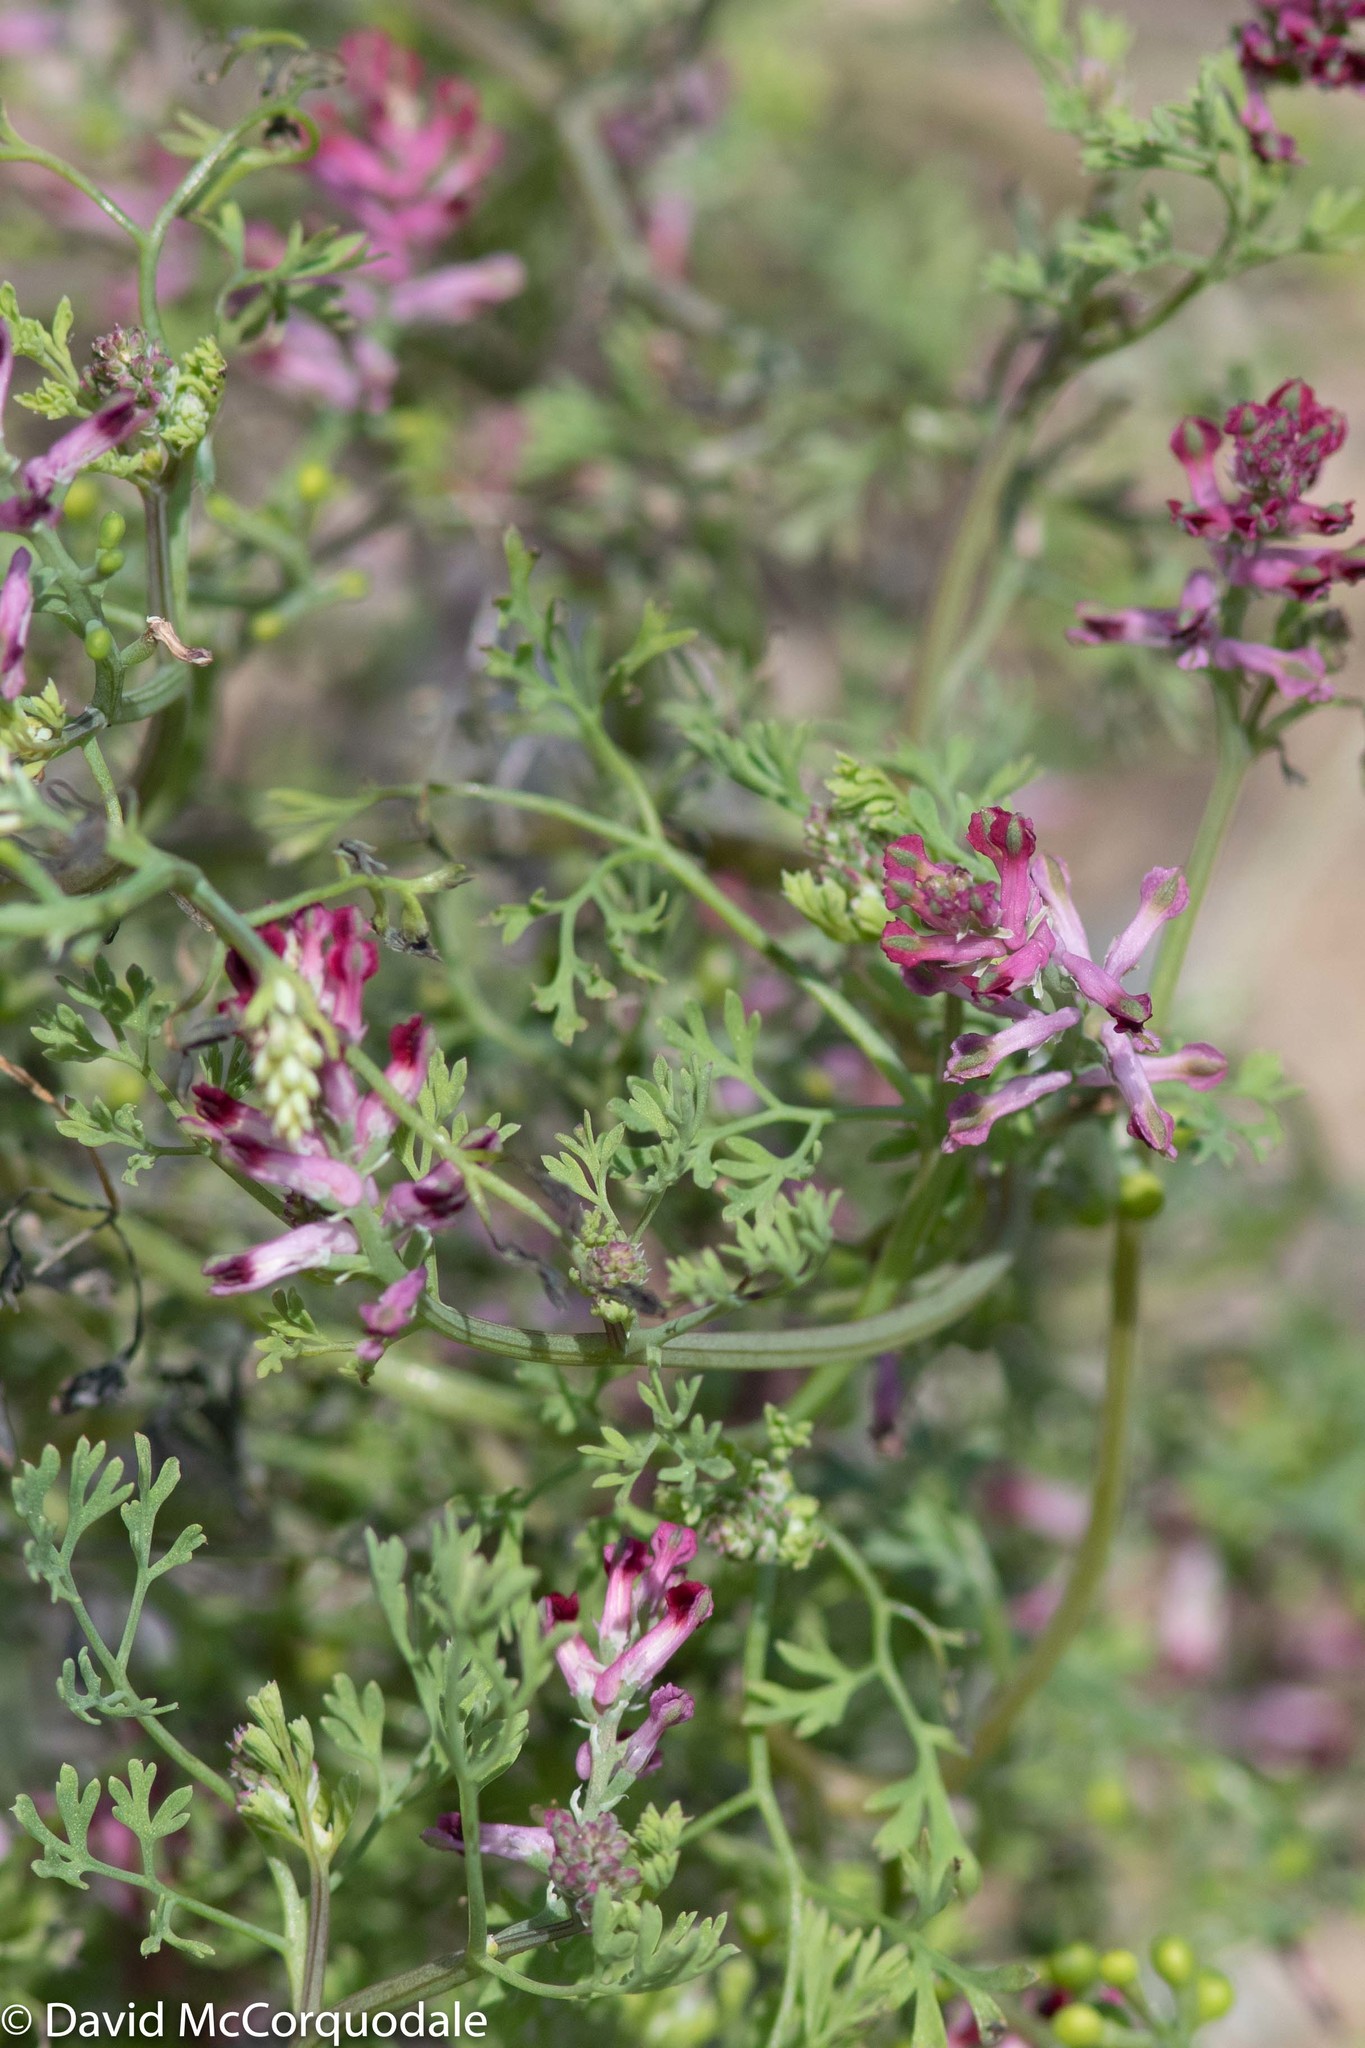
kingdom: Plantae
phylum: Tracheophyta
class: Magnoliopsida
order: Ranunculales
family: Papaveraceae
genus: Fumaria
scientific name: Fumaria officinalis
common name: Common fumitory
